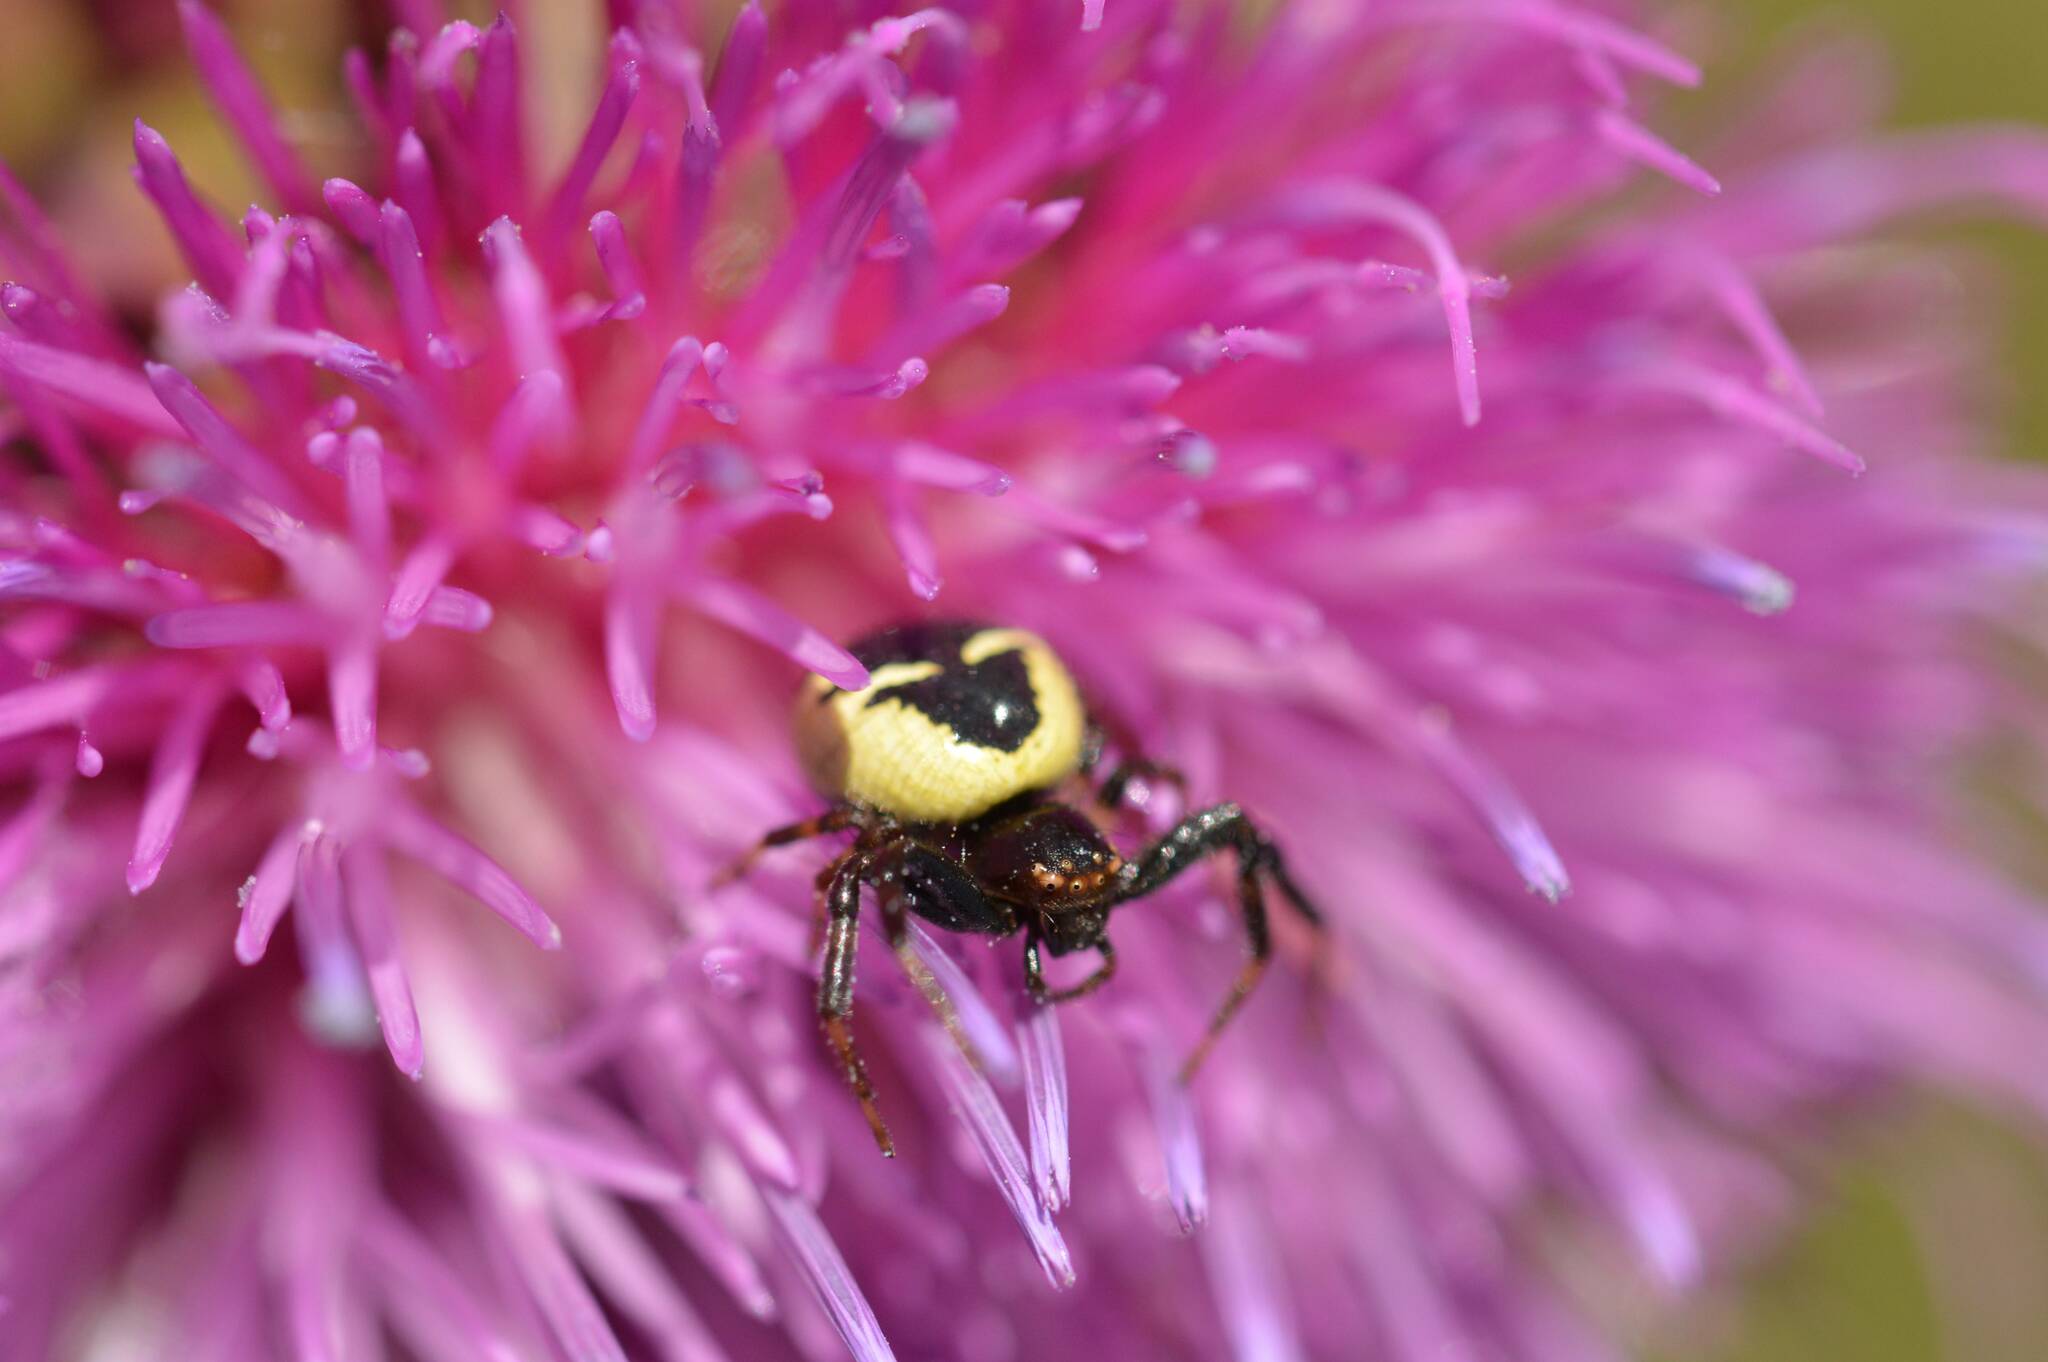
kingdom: Animalia
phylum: Arthropoda
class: Arachnida
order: Araneae
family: Thomisidae
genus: Synema
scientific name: Synema globosum
